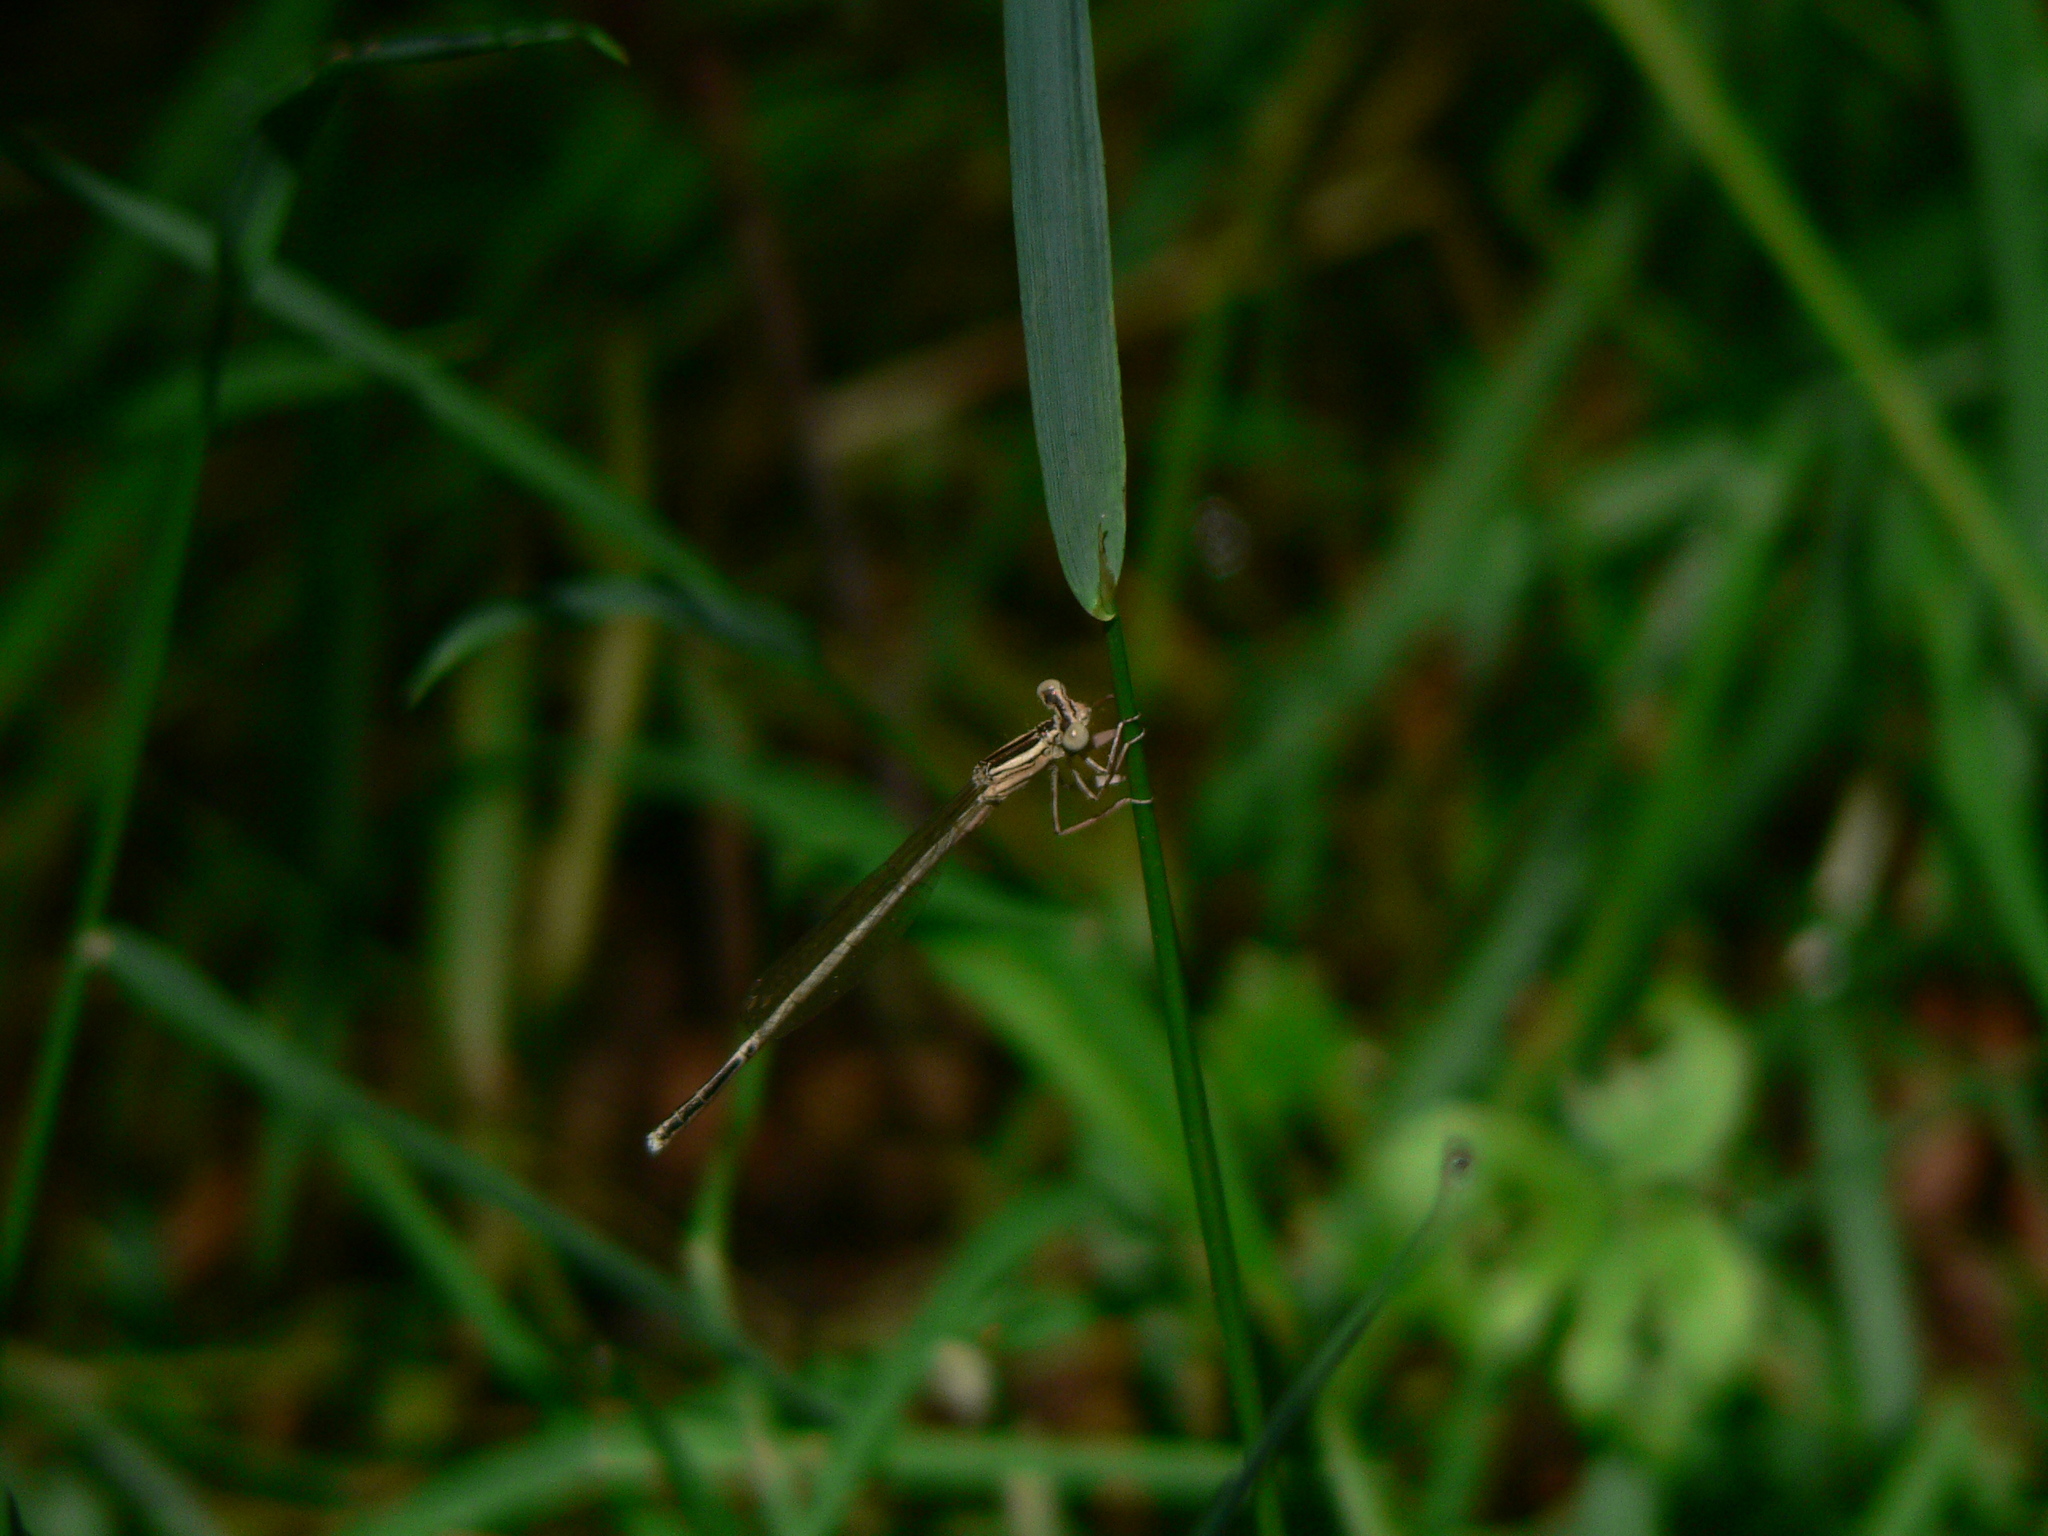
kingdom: Animalia
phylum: Arthropoda
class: Insecta
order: Odonata
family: Platycnemididae
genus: Platycnemis
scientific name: Platycnemis latipes
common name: White featherleg
